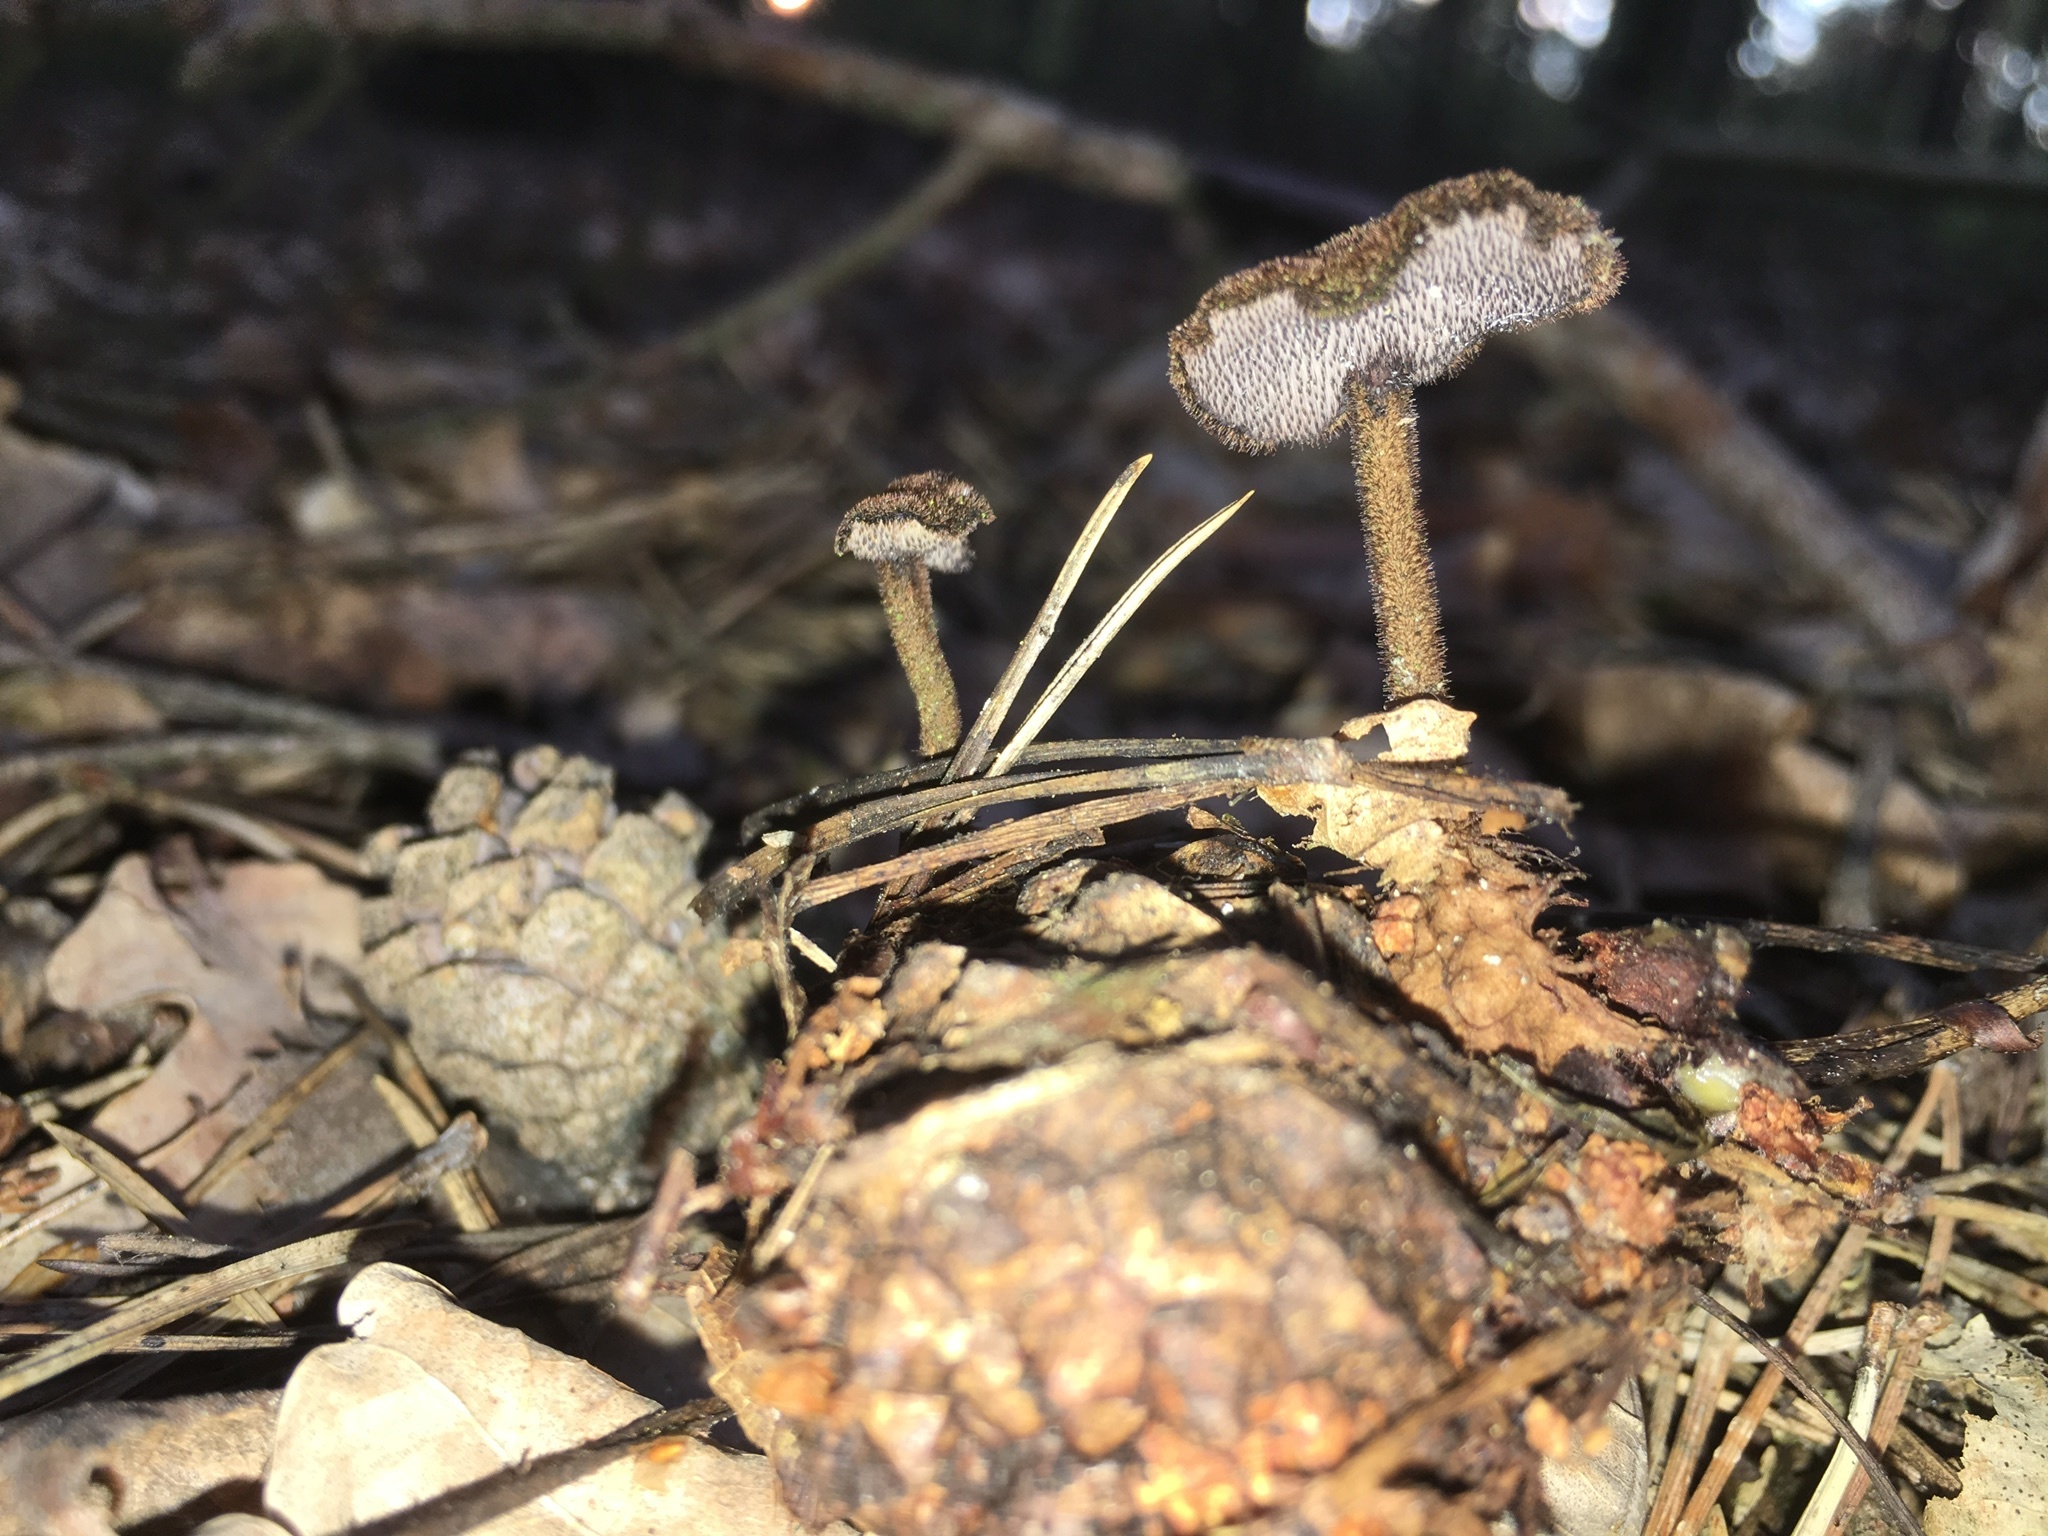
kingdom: Fungi
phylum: Basidiomycota
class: Agaricomycetes
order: Russulales
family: Auriscalpiaceae
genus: Auriscalpium
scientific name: Auriscalpium vulgare
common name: Earpick fungus
